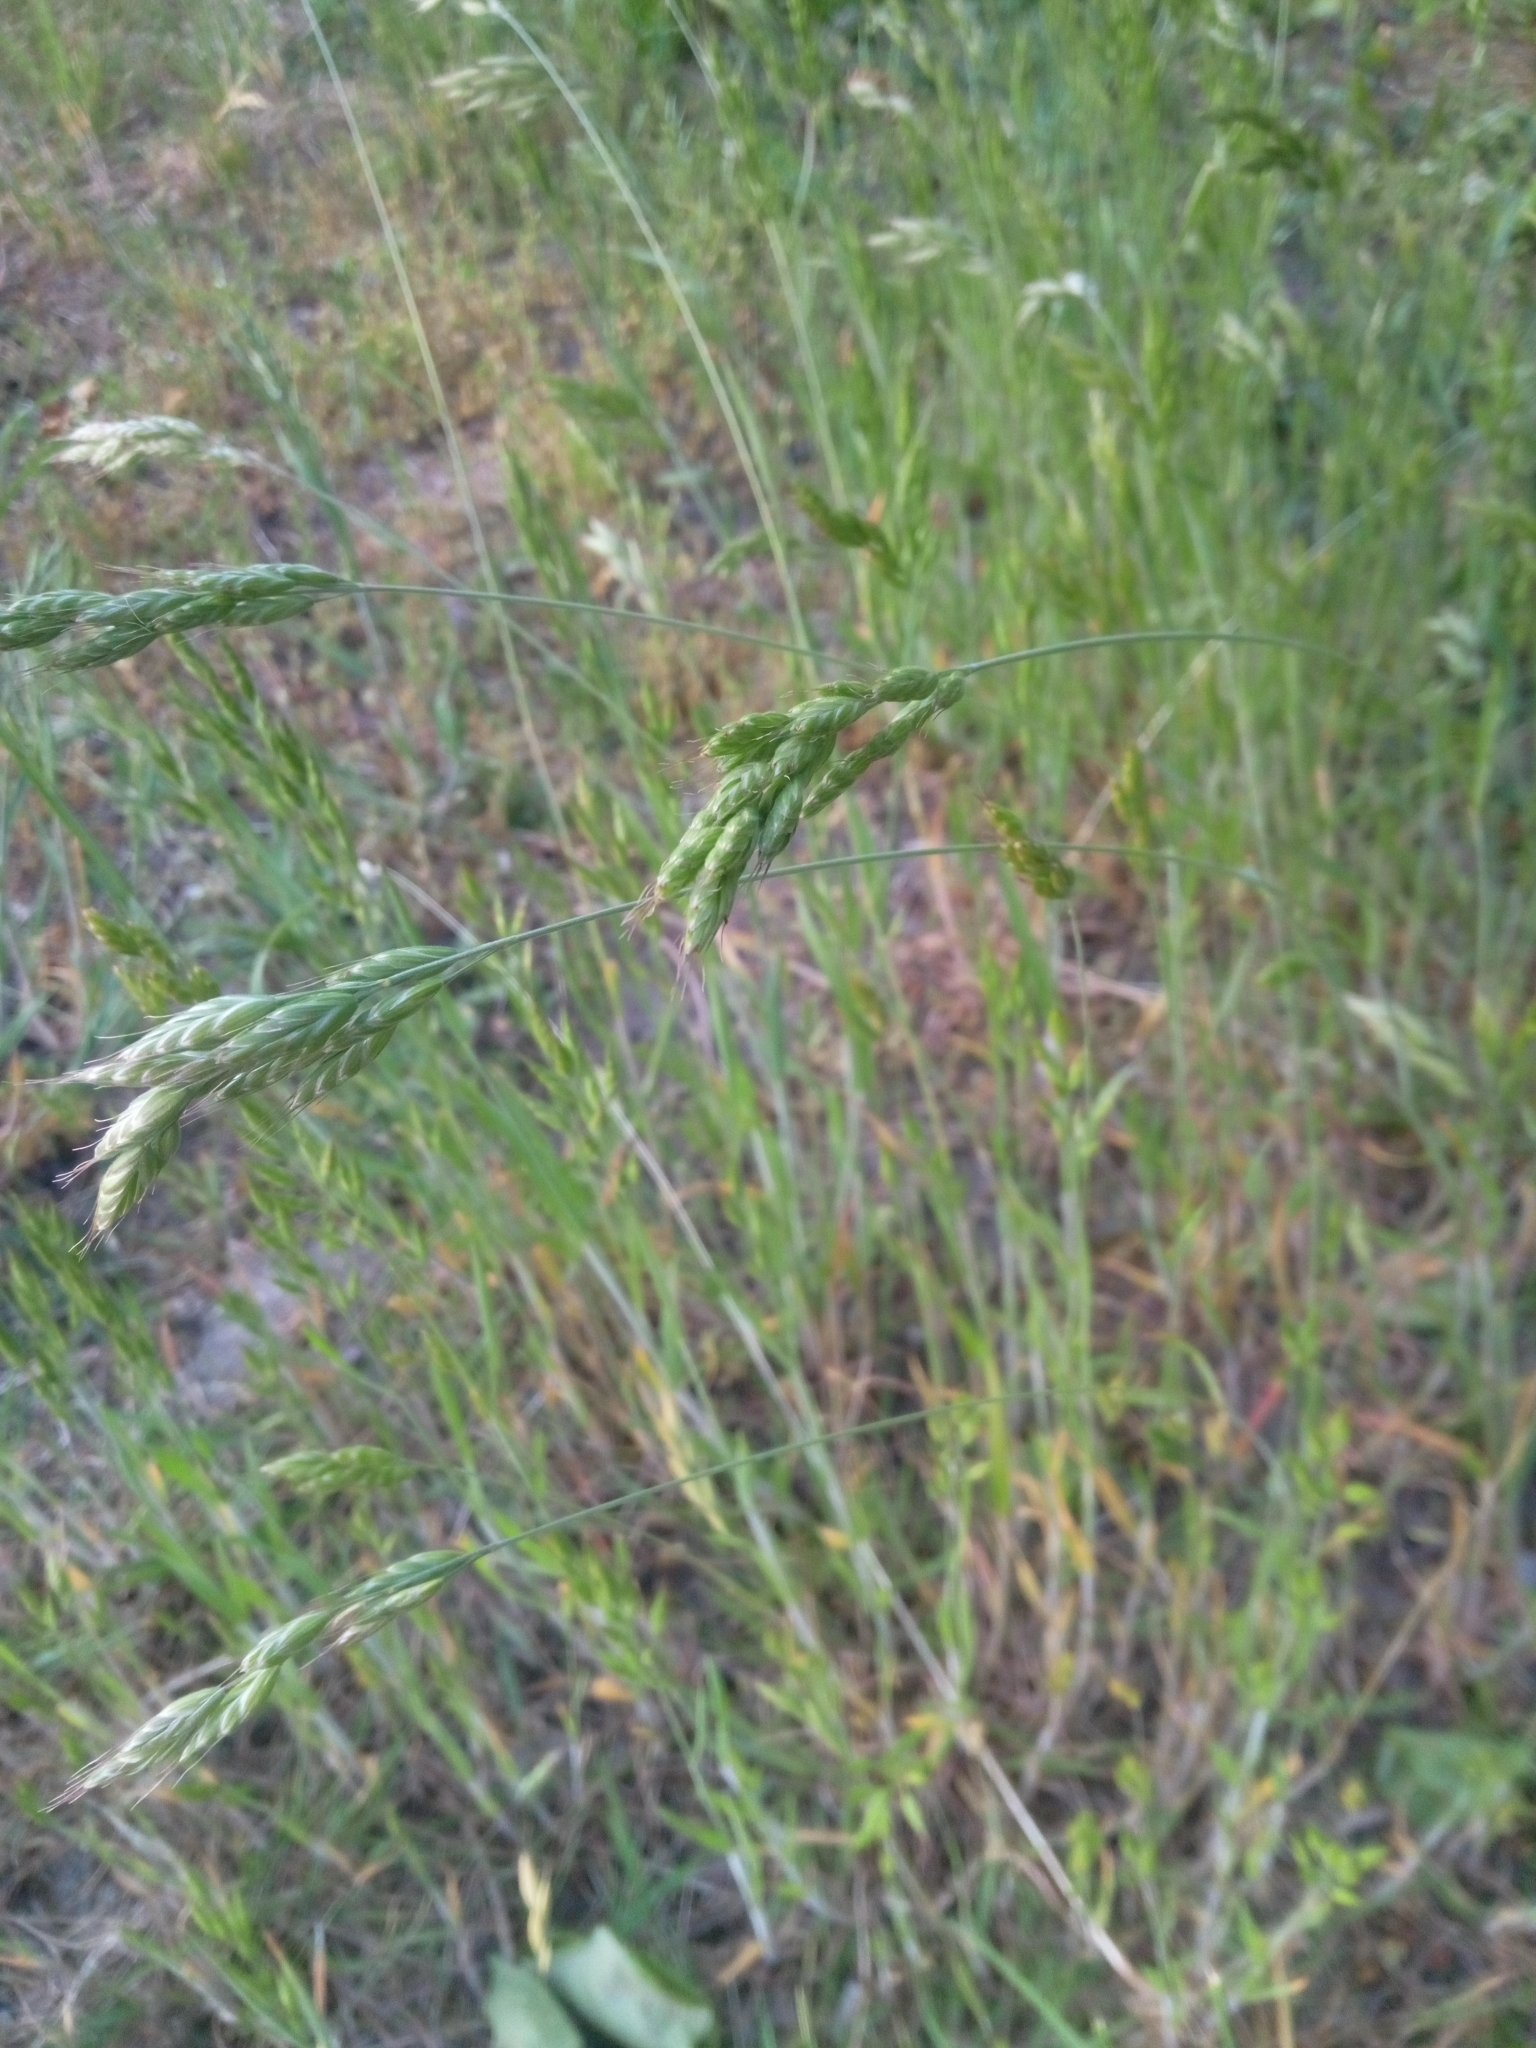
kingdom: Plantae
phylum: Tracheophyta
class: Liliopsida
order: Poales
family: Poaceae
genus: Bromus
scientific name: Bromus hordeaceus
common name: Soft brome
